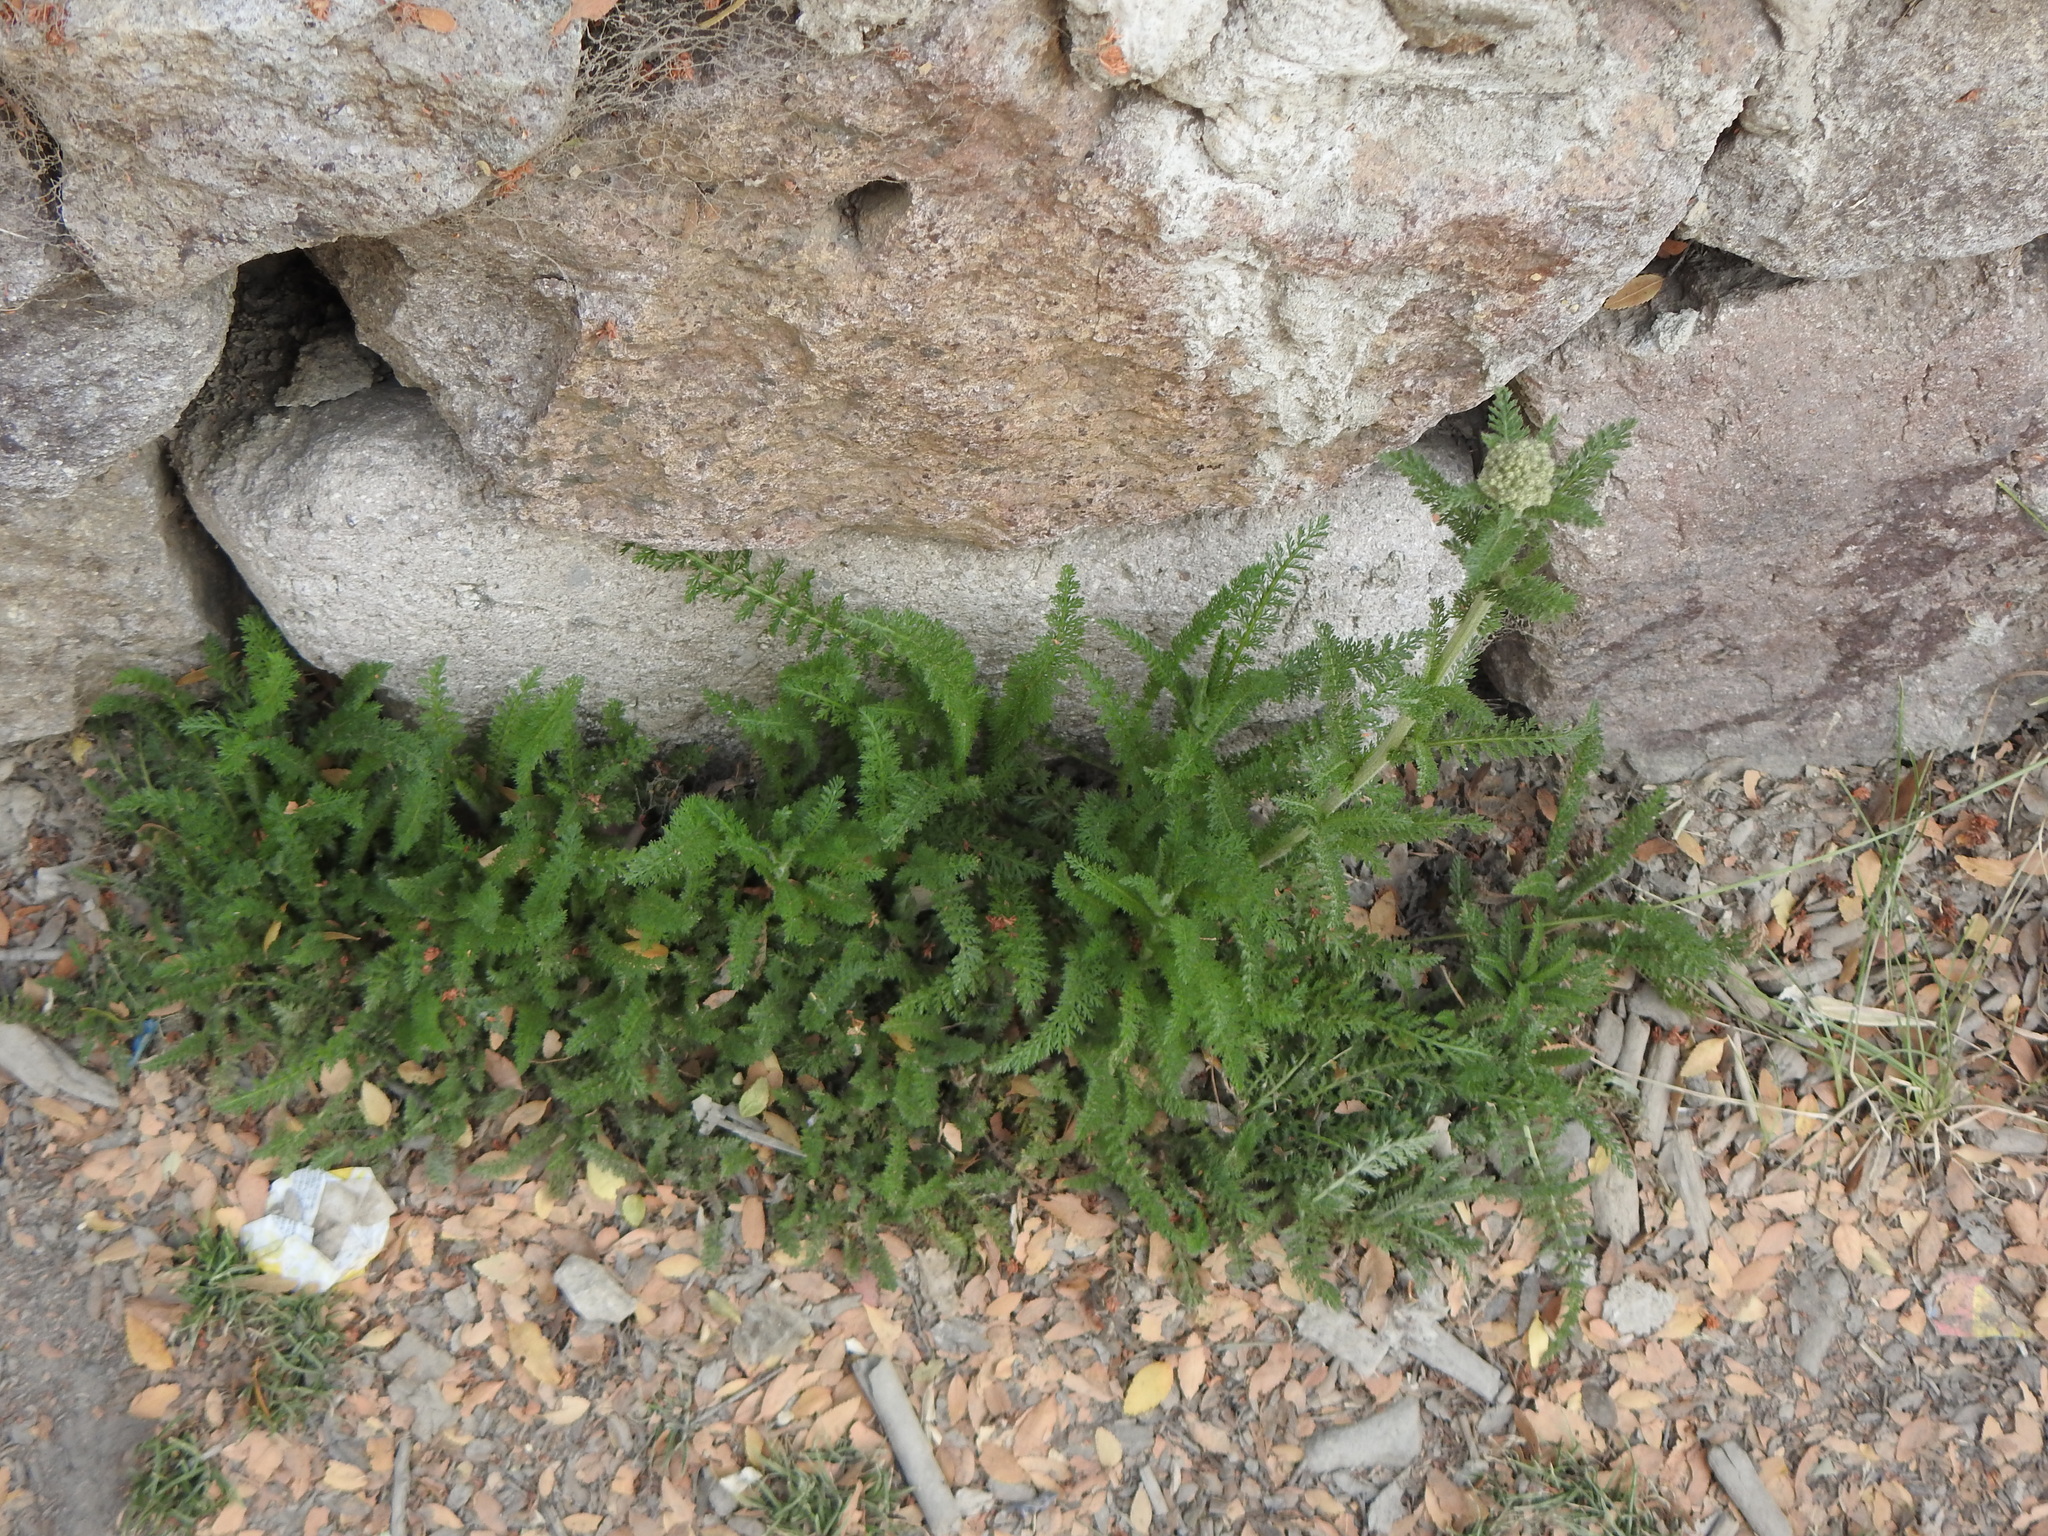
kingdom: Plantae
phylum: Tracheophyta
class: Magnoliopsida
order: Asterales
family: Asteraceae
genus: Achillea
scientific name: Achillea millefolium
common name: Yarrow
